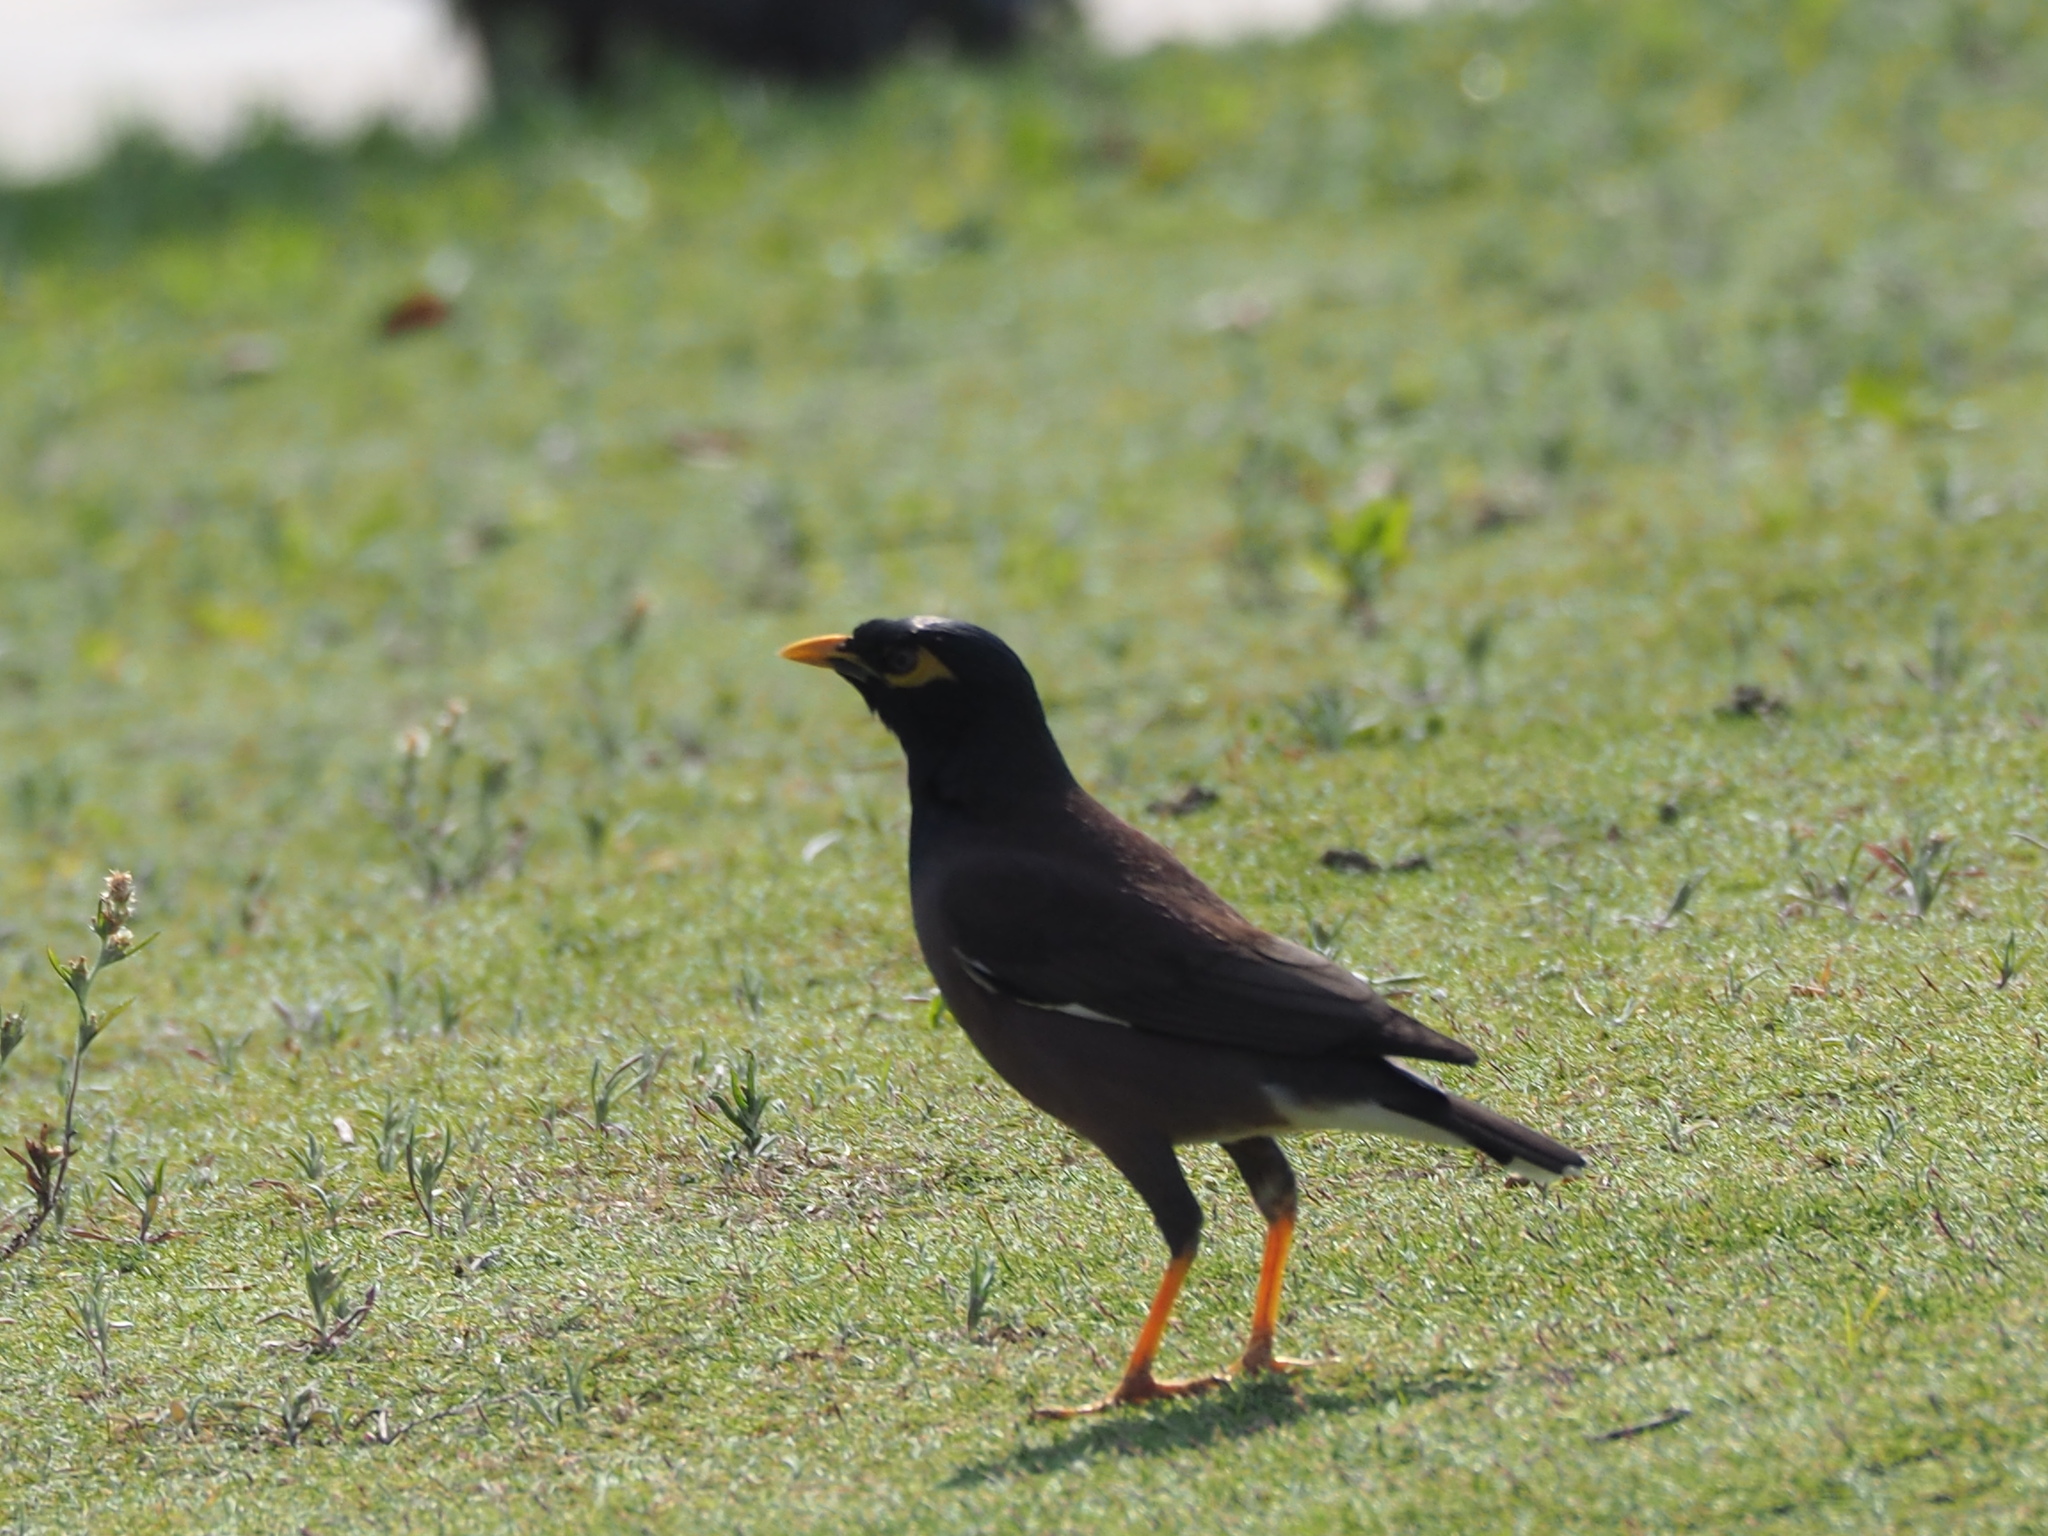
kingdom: Animalia
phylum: Chordata
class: Aves
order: Passeriformes
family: Sturnidae
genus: Acridotheres
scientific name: Acridotheres tristis
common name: Common myna
